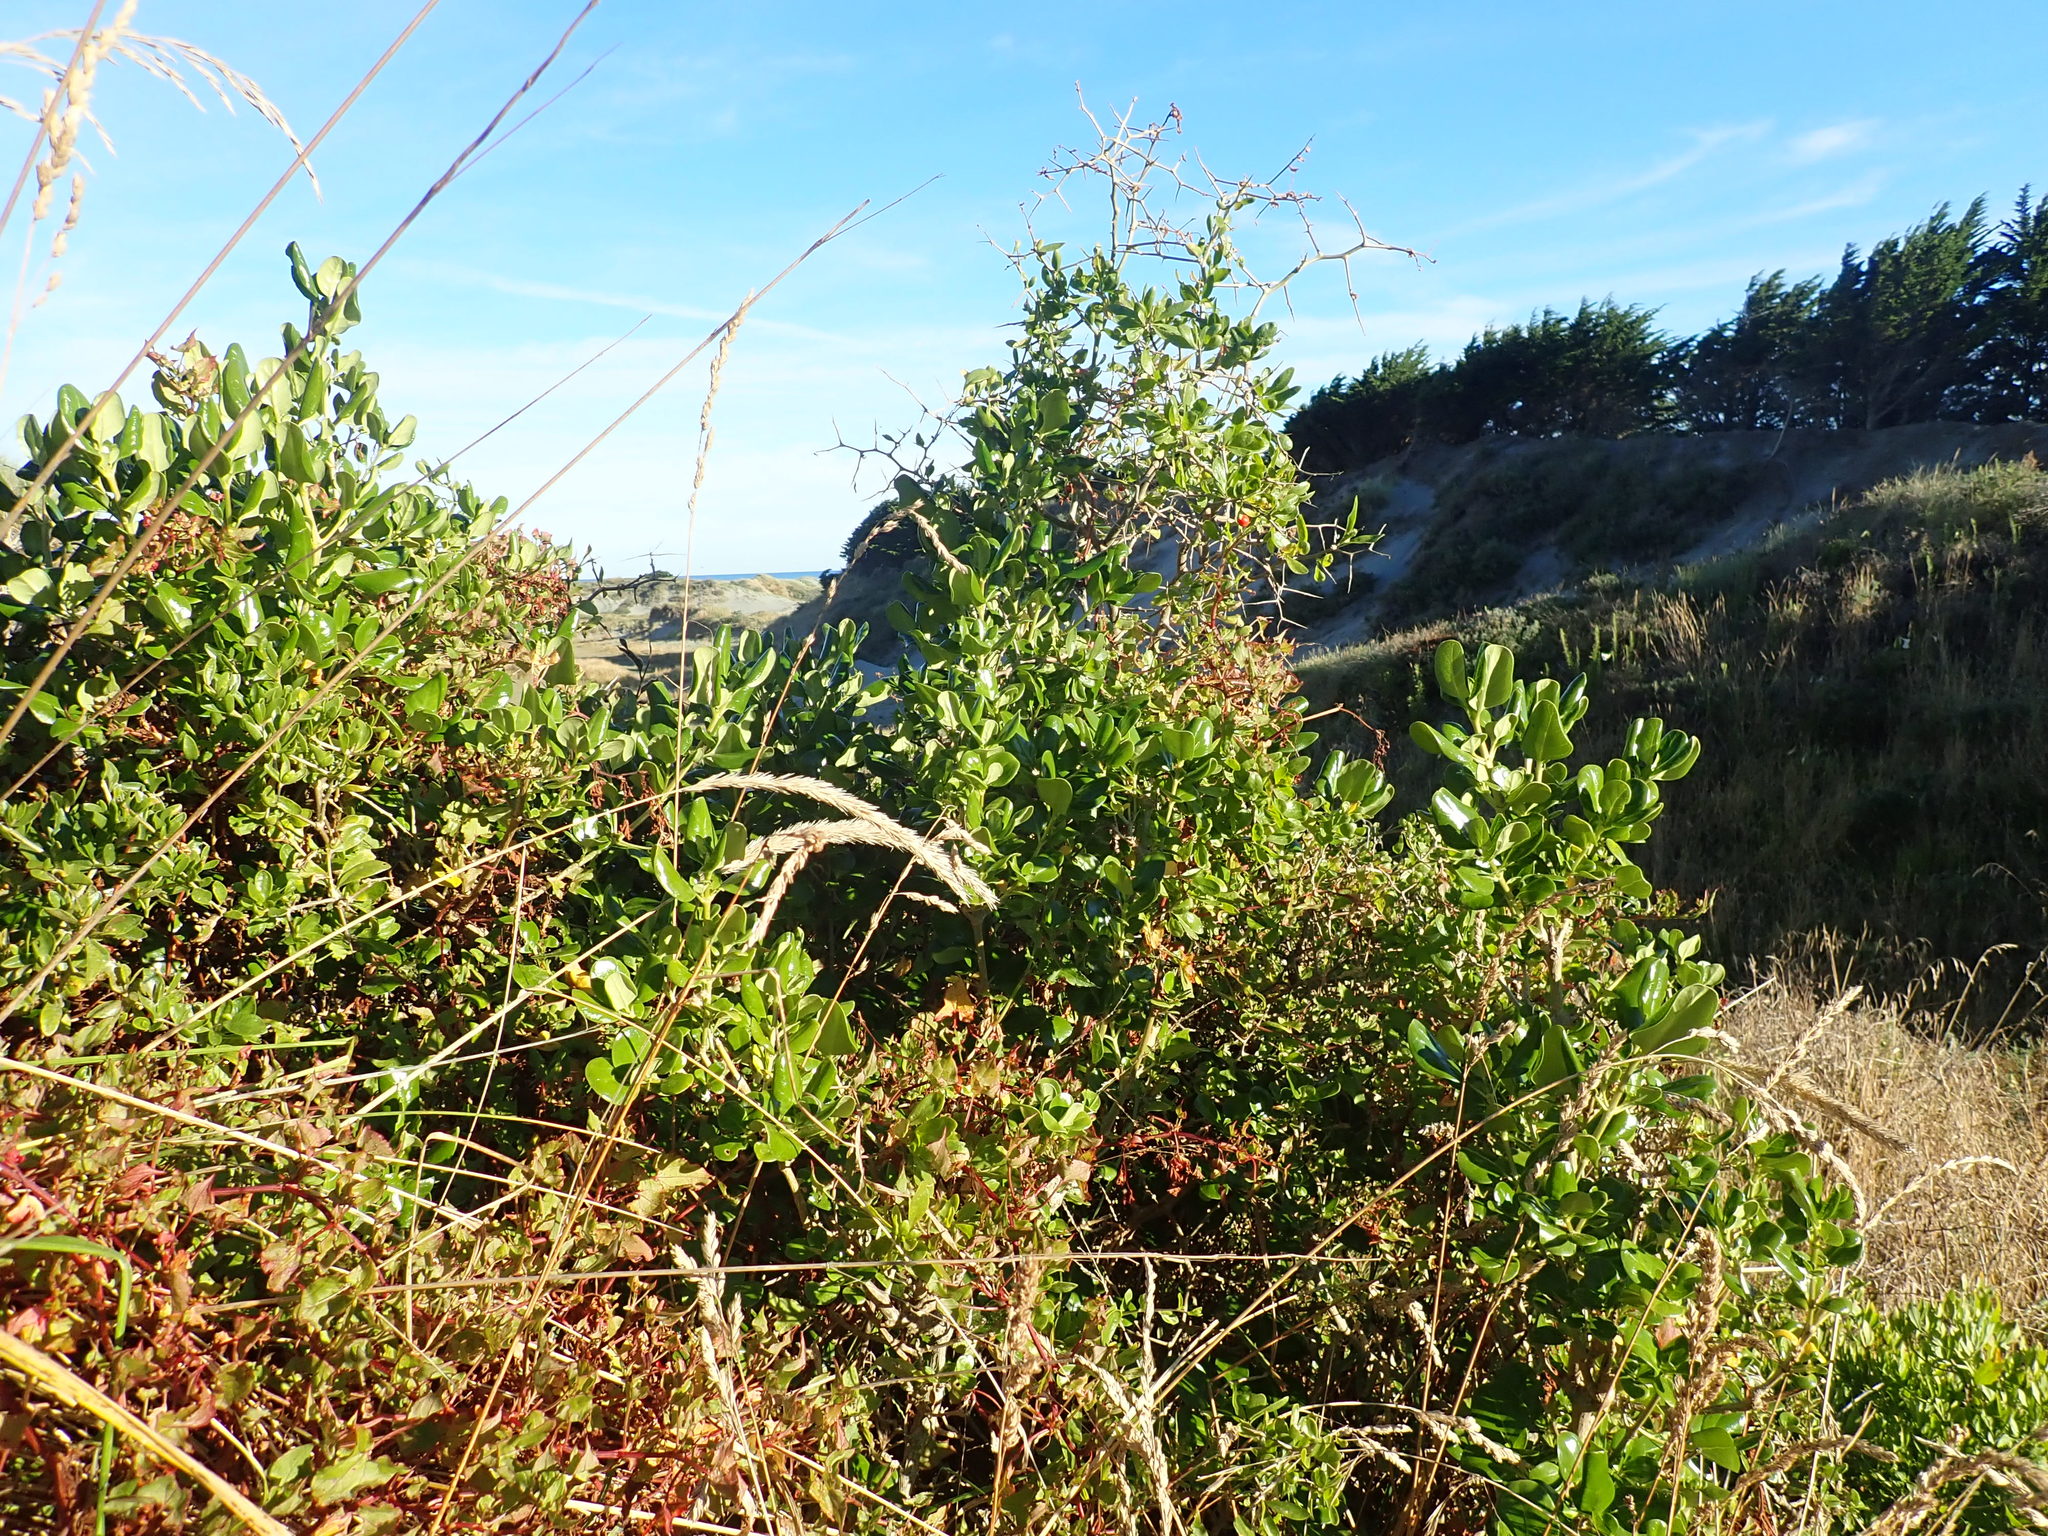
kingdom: Plantae
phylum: Tracheophyta
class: Magnoliopsida
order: Gentianales
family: Rubiaceae
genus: Coprosma
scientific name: Coprosma repens
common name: Tree bedstraw
